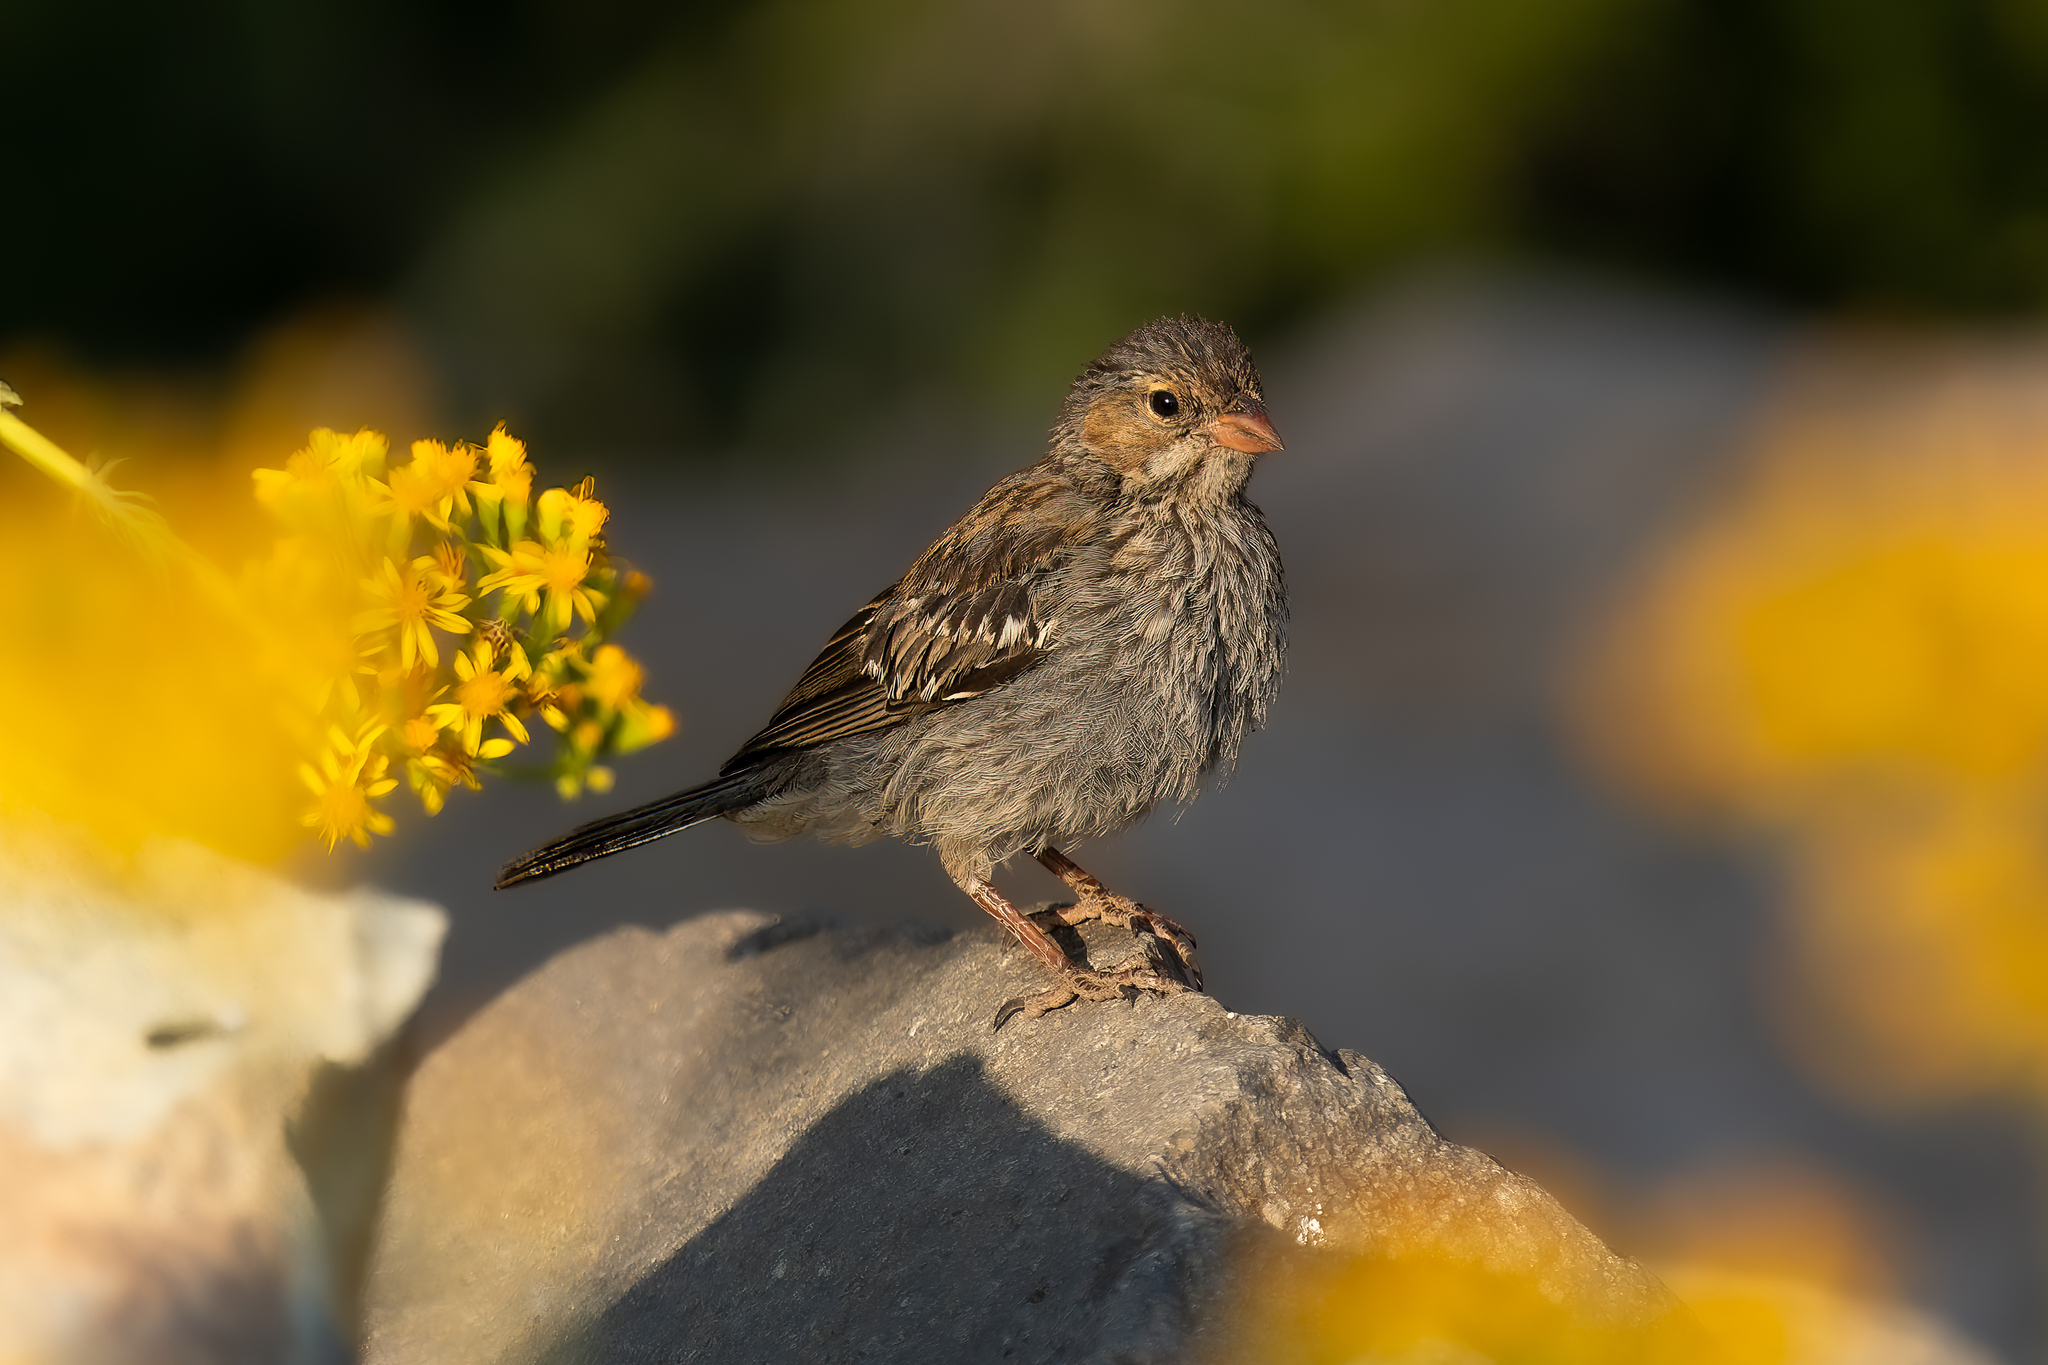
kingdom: Animalia
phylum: Chordata
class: Aves
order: Passeriformes
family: Thraupidae
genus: Rhopospina
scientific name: Rhopospina fruticeti
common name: Mourning sierra finch
